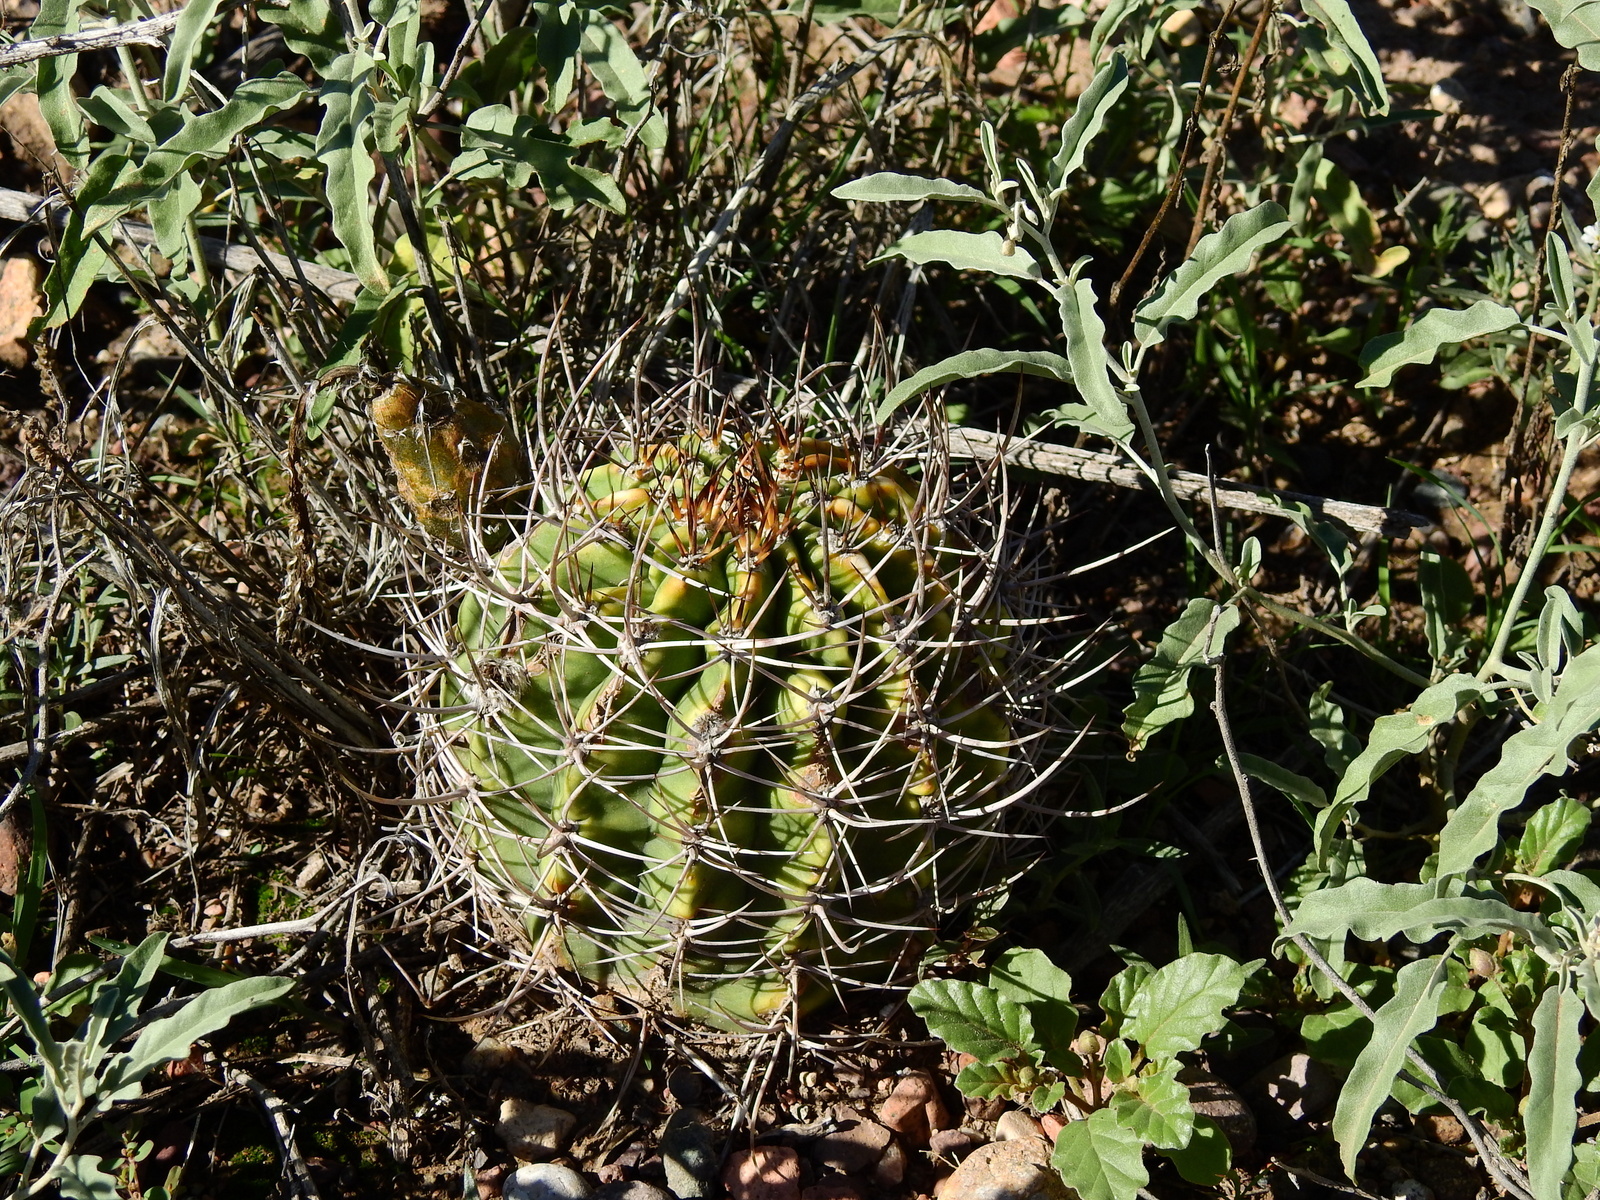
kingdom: Plantae
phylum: Tracheophyta
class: Magnoliopsida
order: Caryophyllales
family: Cactaceae
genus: Acanthocalycium
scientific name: Acanthocalycium leucanthum
